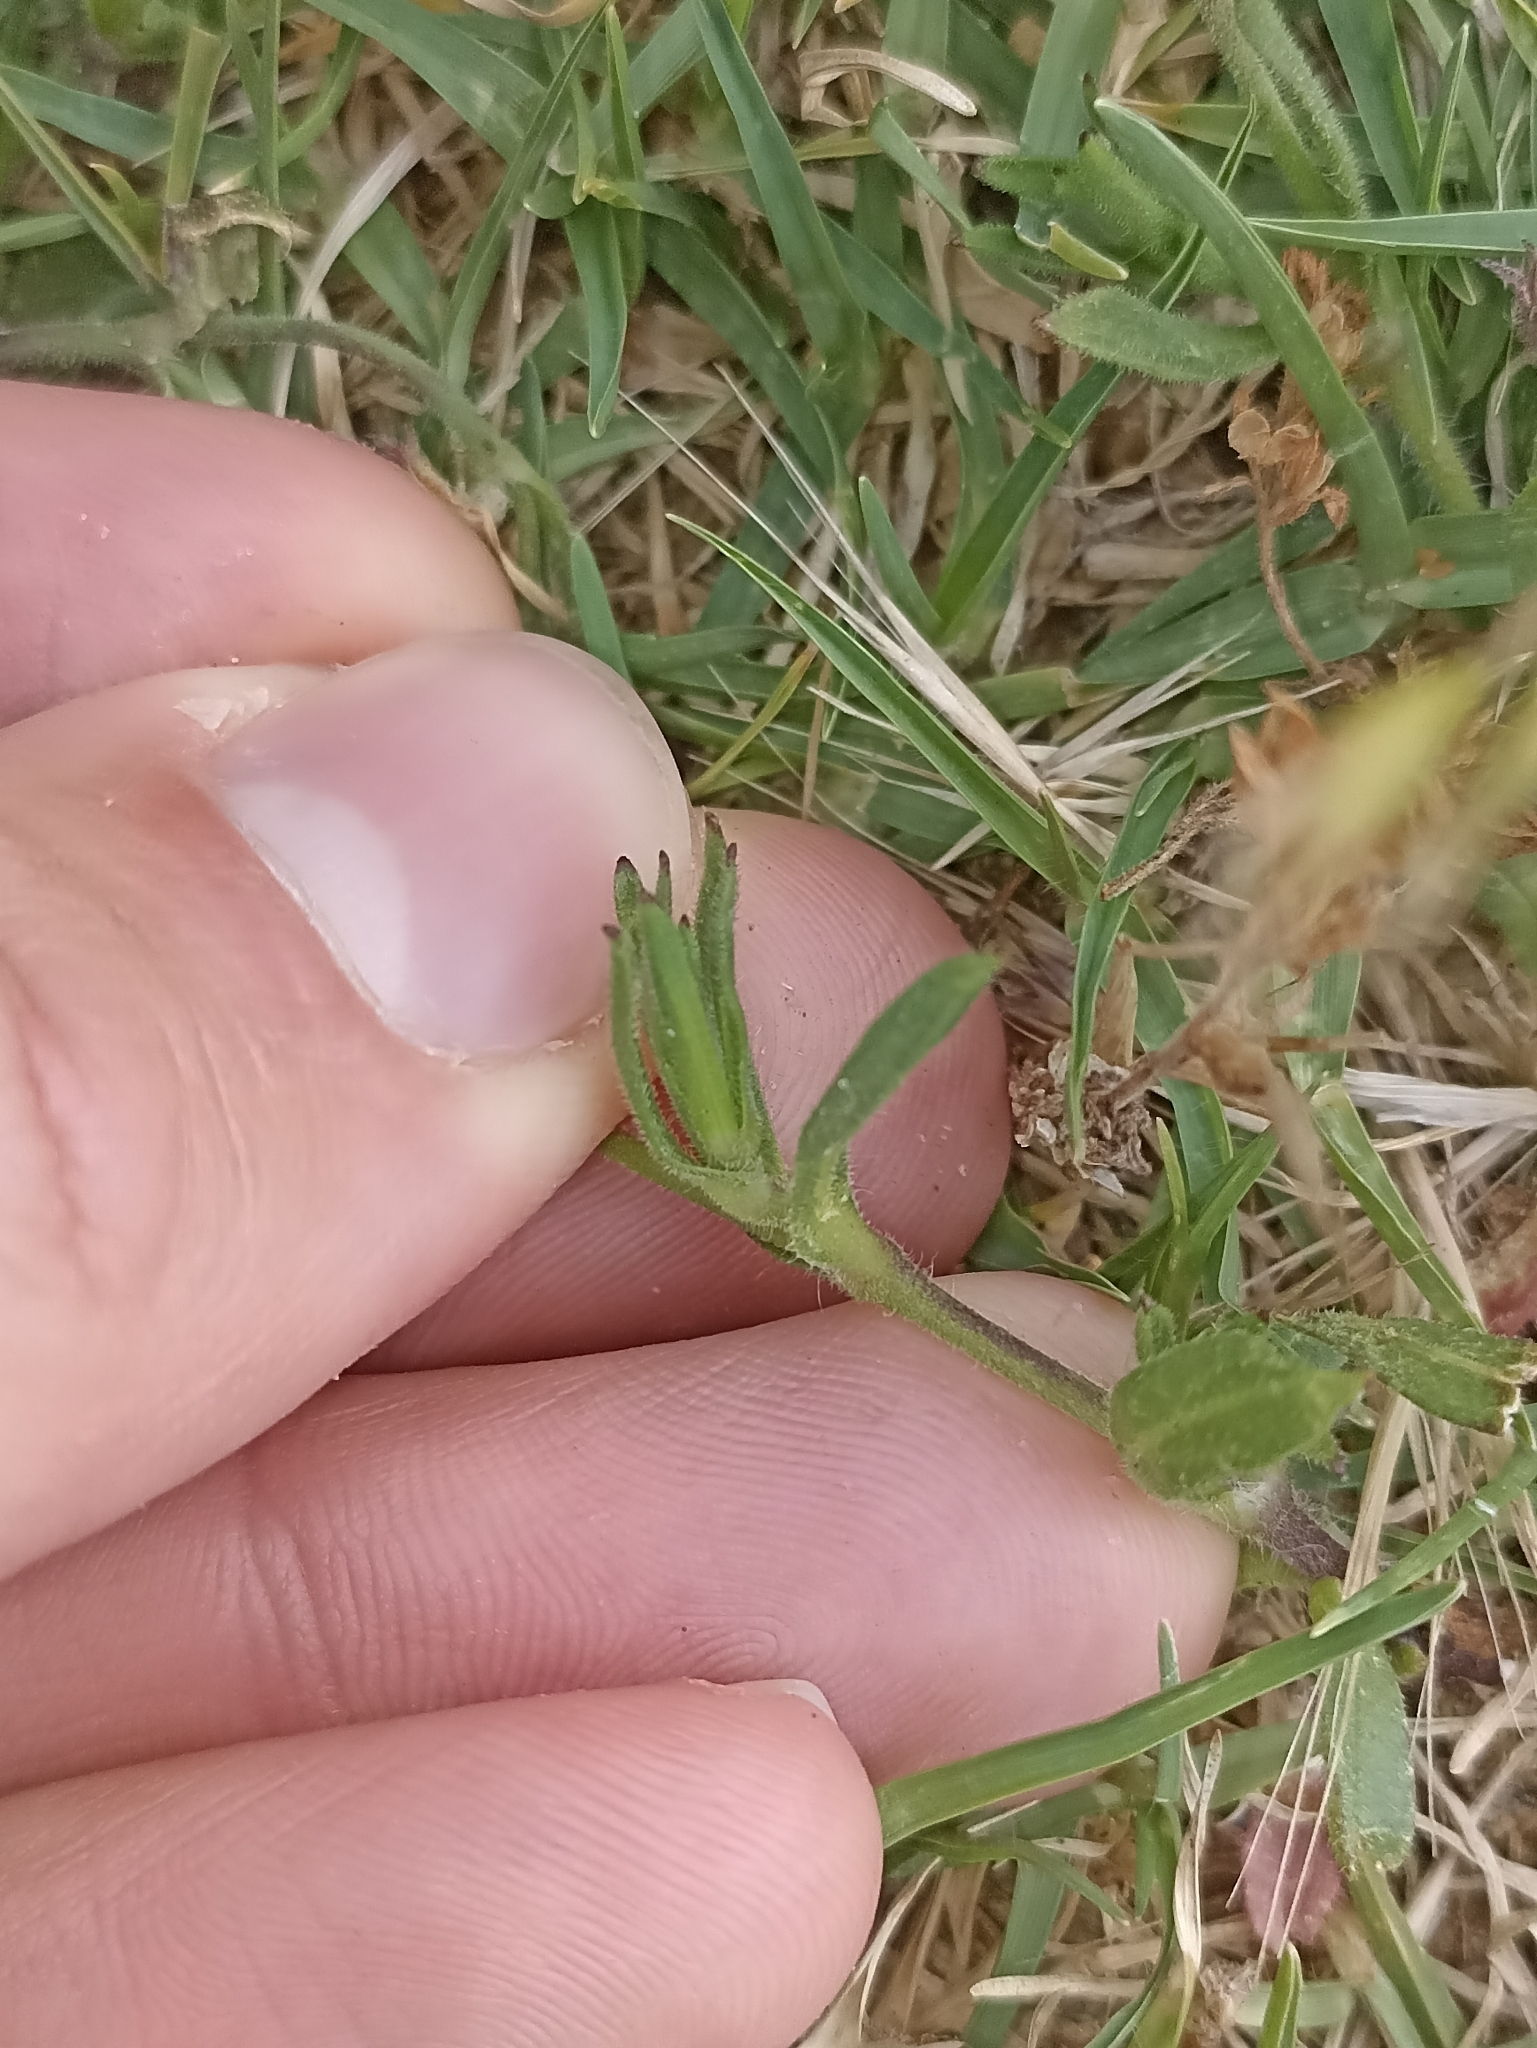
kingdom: Plantae
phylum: Tracheophyta
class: Magnoliopsida
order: Caryophyllales
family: Caryophyllaceae
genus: Silene
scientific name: Silene gallica
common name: Small-flowered catchfly
